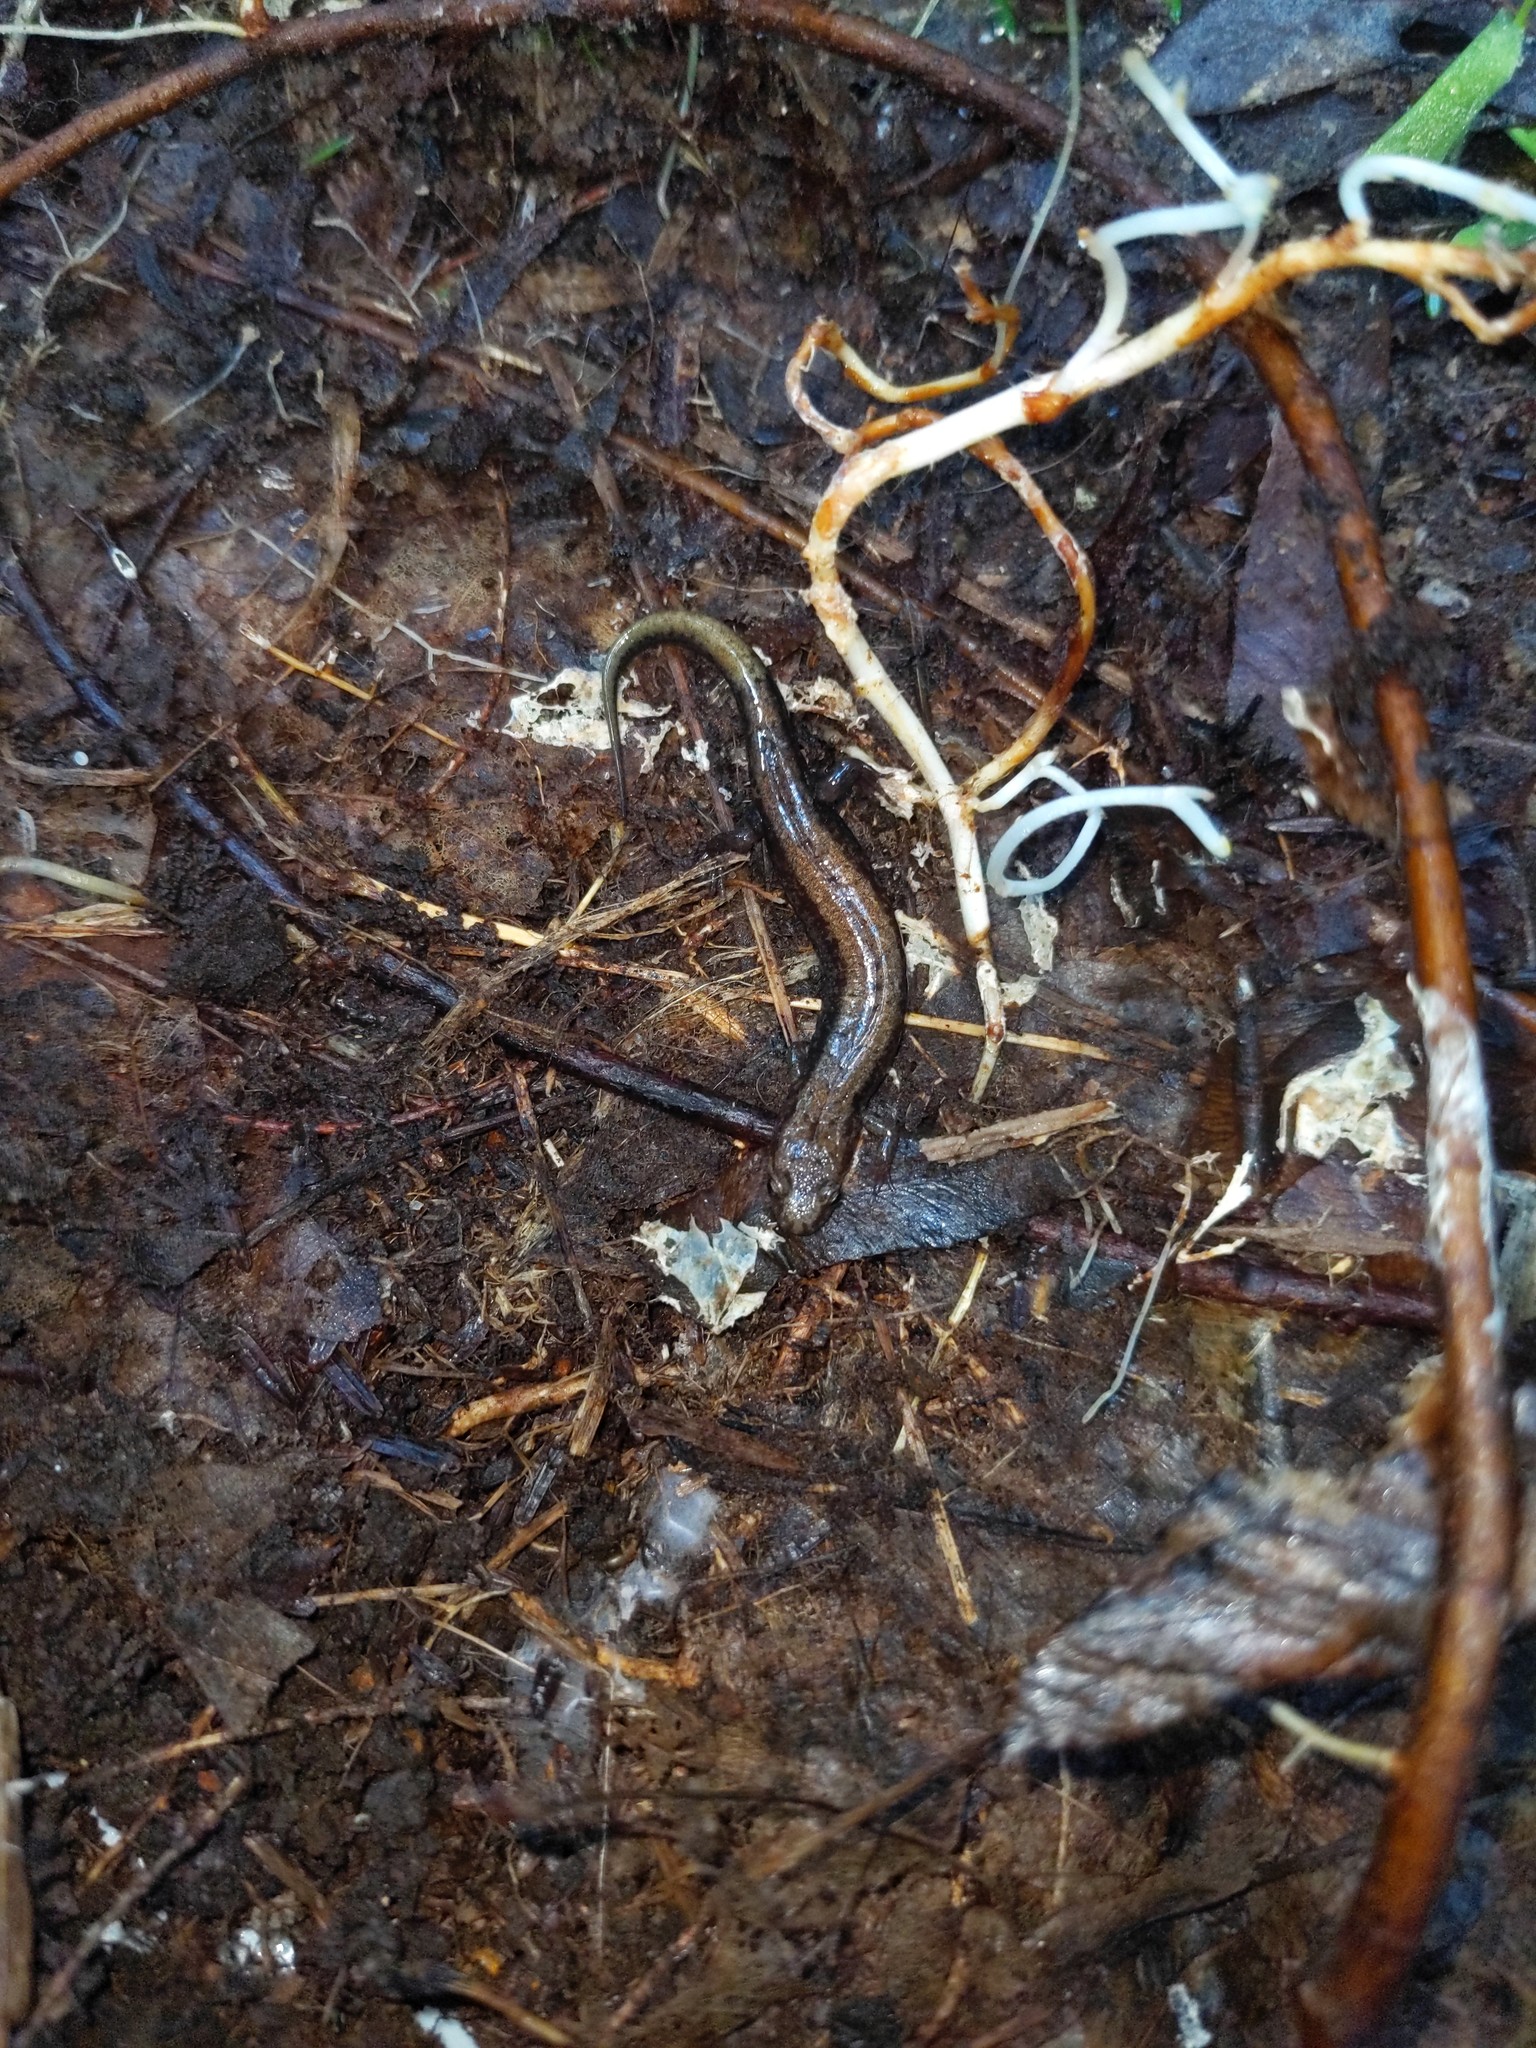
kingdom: Animalia
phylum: Chordata
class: Amphibia
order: Caudata
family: Plethodontidae
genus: Desmognathus
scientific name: Desmognathus ochrophaeus
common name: Allegheny mountain dusky salamander
